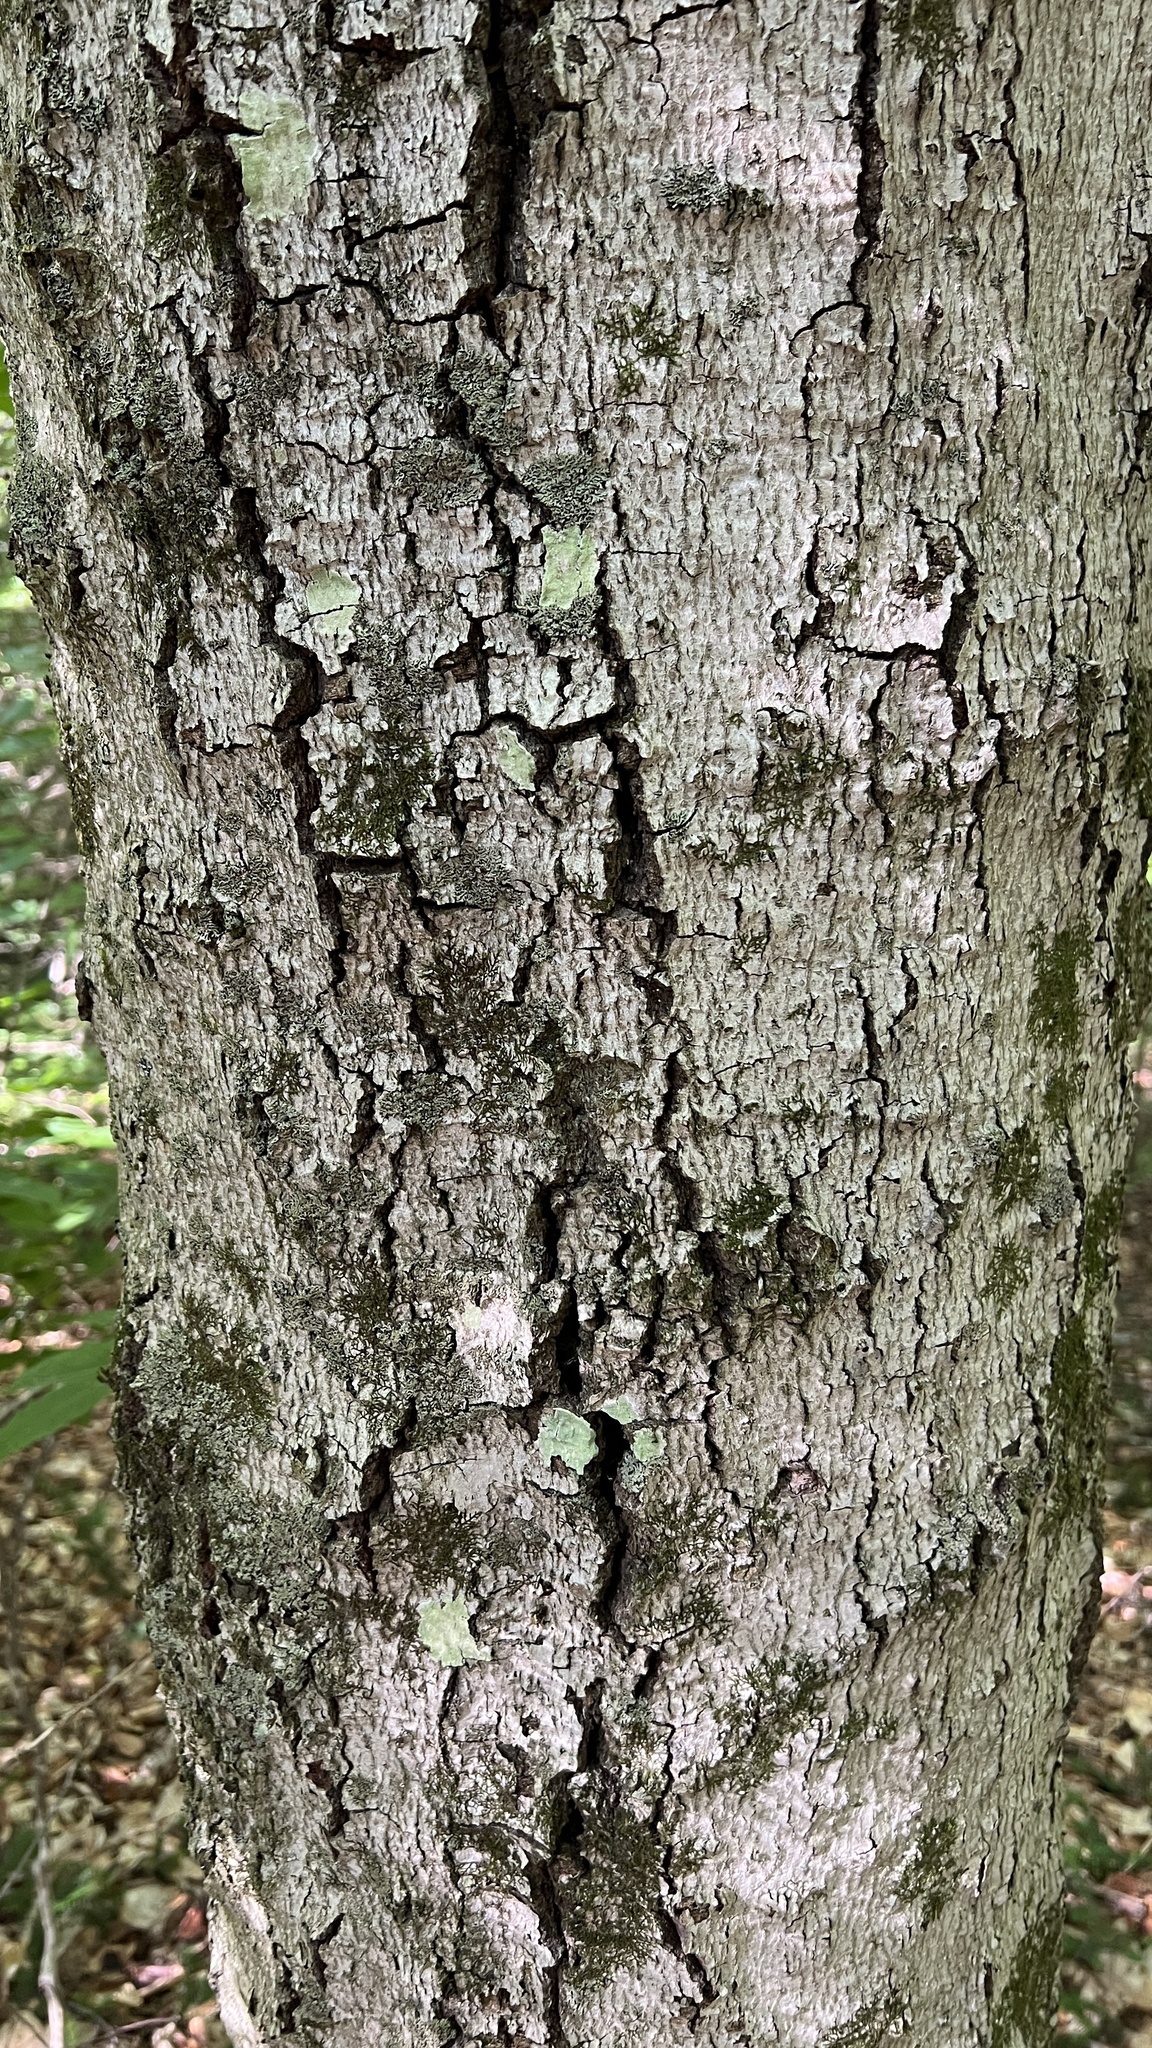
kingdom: Plantae
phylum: Tracheophyta
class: Magnoliopsida
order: Fagales
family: Fagaceae
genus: Fagus
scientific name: Fagus grandifolia
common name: American beech
